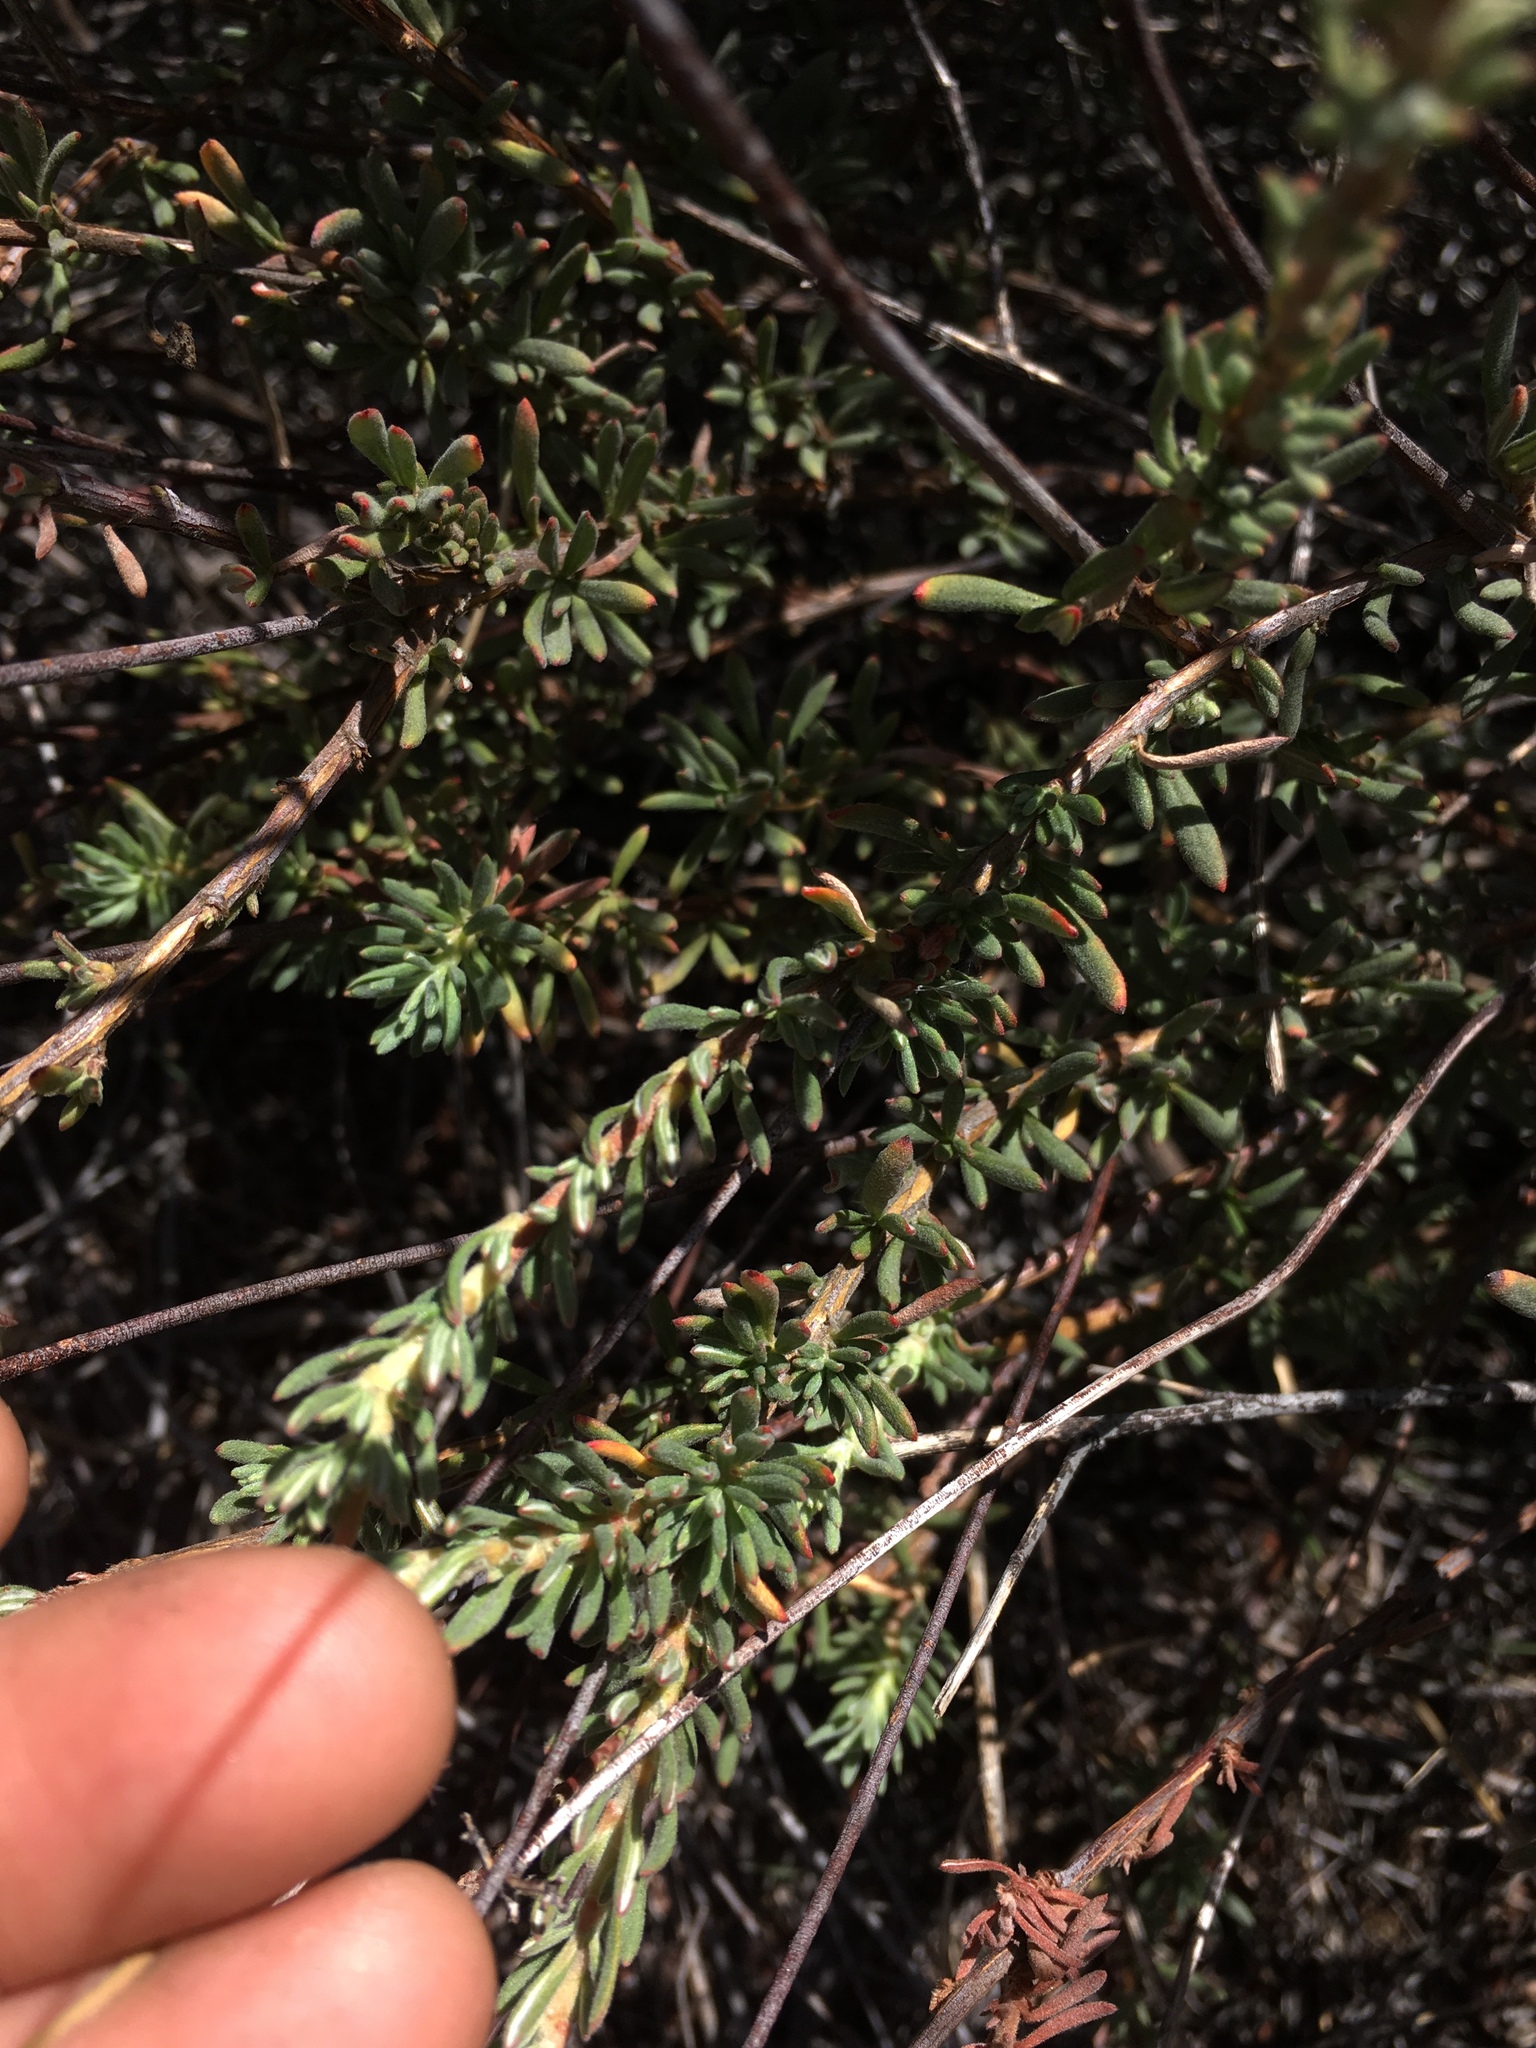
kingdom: Plantae
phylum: Tracheophyta
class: Magnoliopsida
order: Caryophyllales
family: Polygonaceae
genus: Eriogonum
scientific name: Eriogonum fasciculatum
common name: California wild buckwheat
